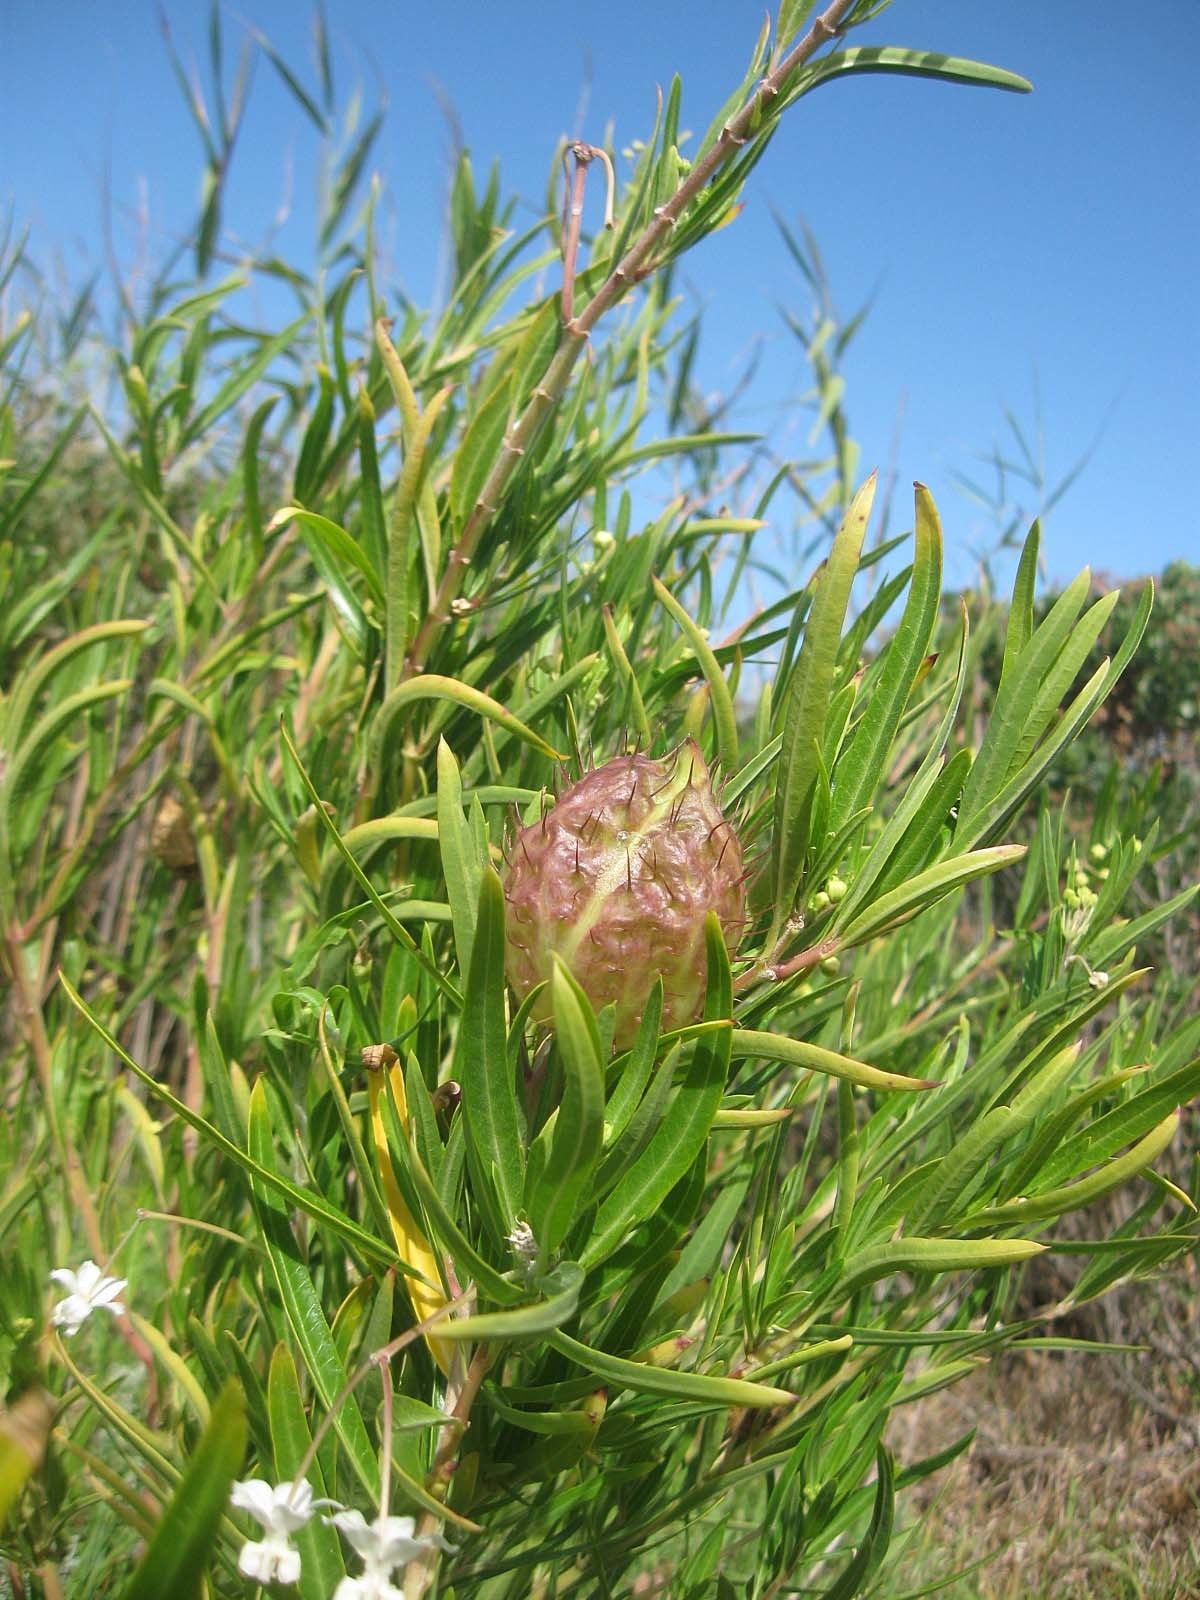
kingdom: Plantae
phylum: Tracheophyta
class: Magnoliopsida
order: Gentianales
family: Apocynaceae
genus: Gomphocarpus
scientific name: Gomphocarpus physocarpus
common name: Balloon cotton bush
